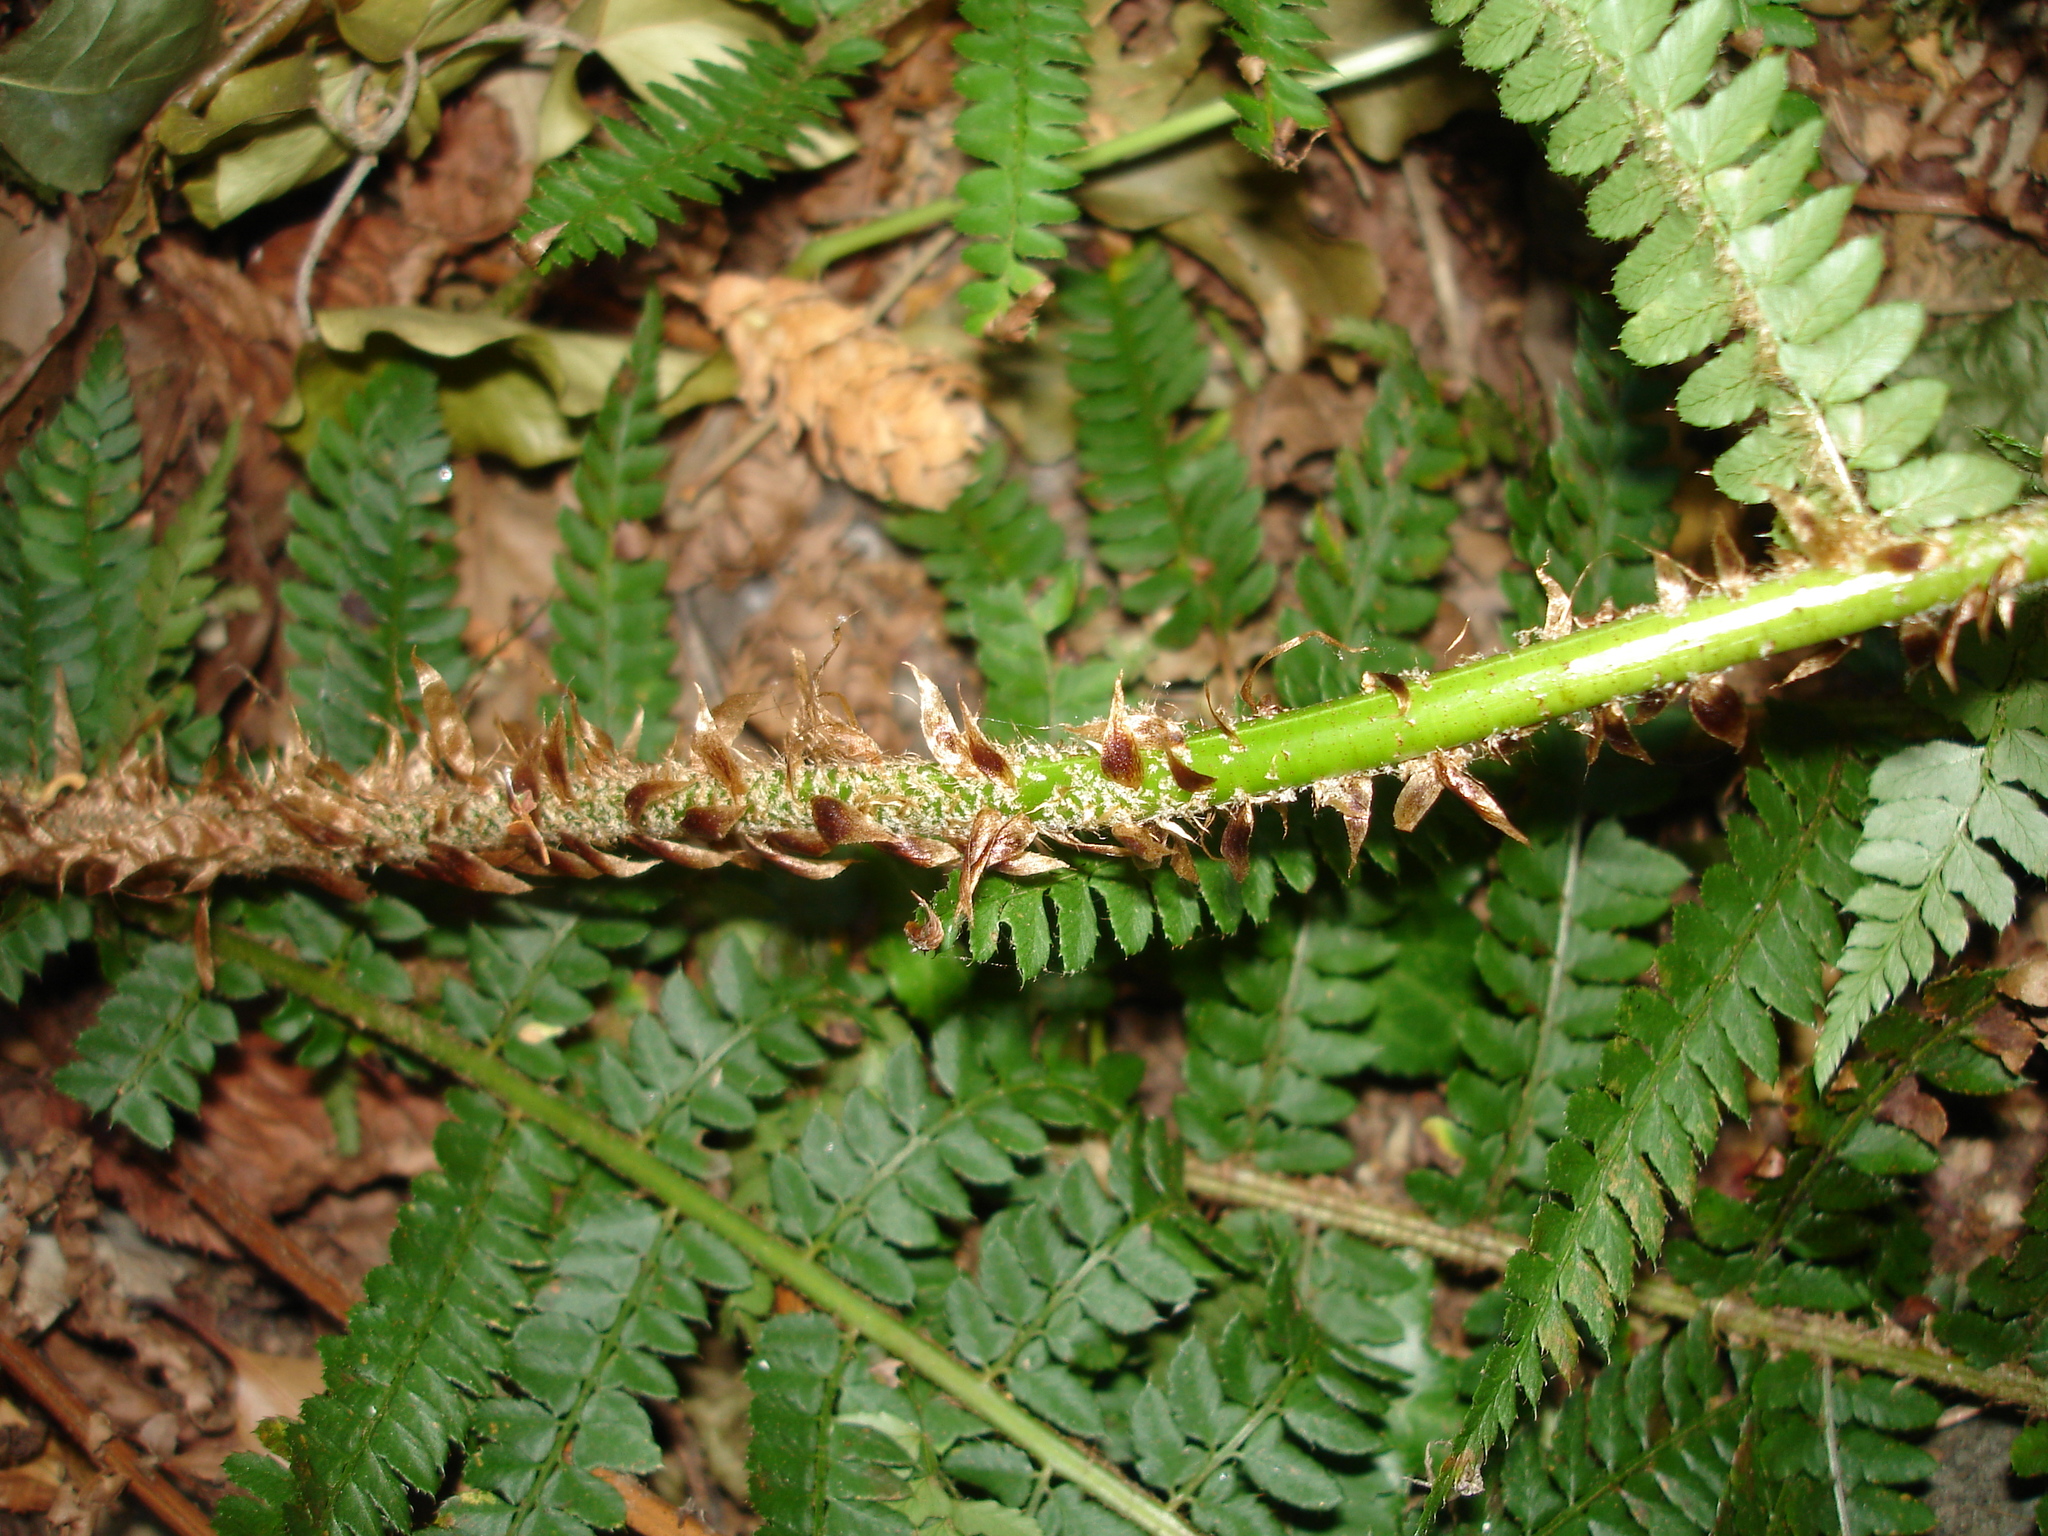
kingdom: Plantae
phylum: Tracheophyta
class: Polypodiopsida
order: Polypodiales
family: Dryopteridaceae
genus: Polystichum
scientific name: Polystichum setiferum
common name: Soft shield-fern
